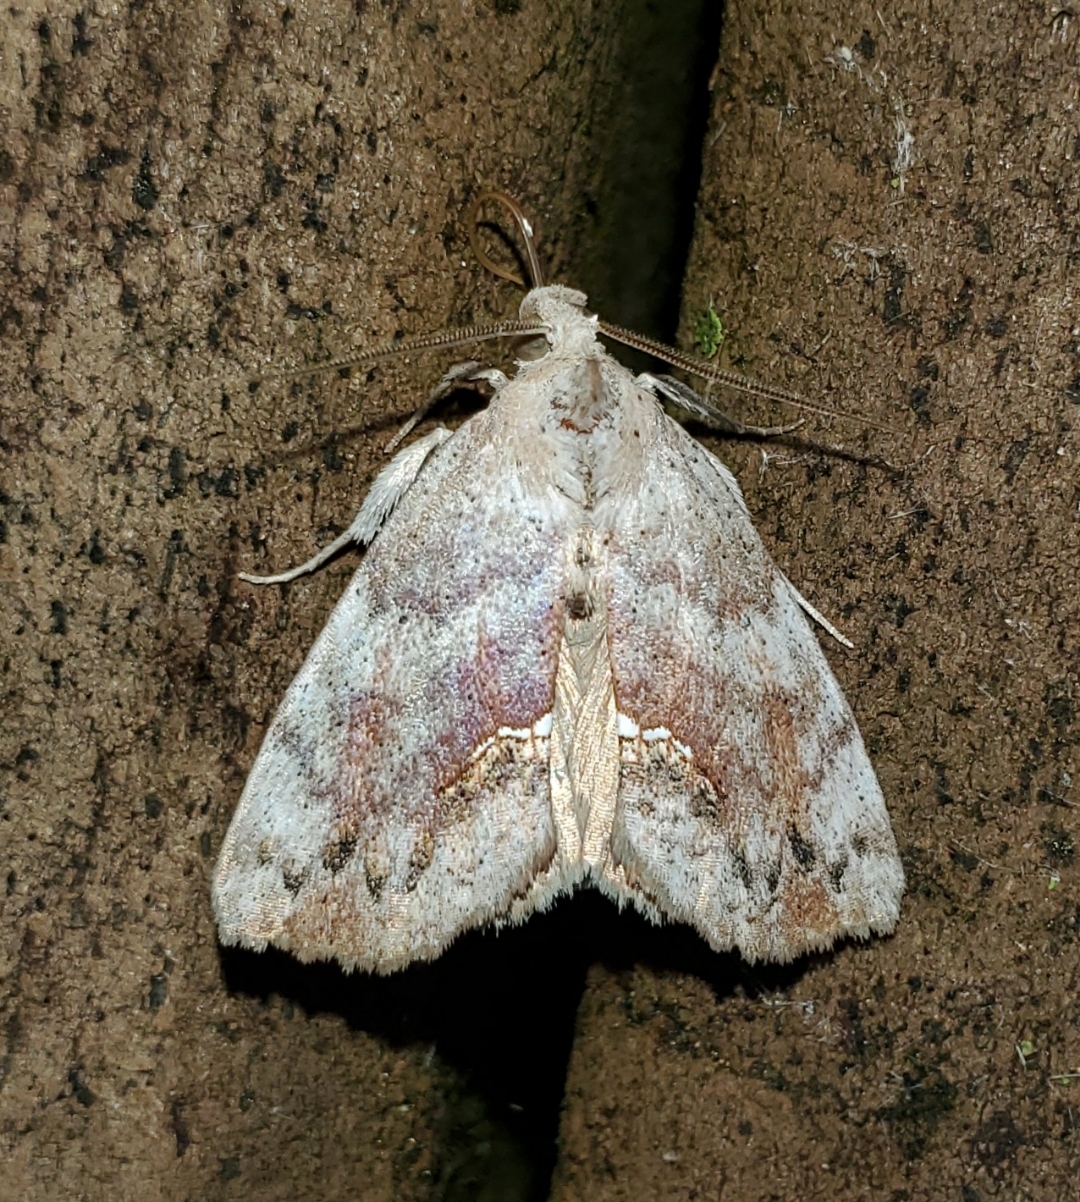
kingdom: Animalia
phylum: Arthropoda
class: Insecta
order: Lepidoptera
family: Erebidae
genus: Hypsoropha
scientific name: Hypsoropha hormos
